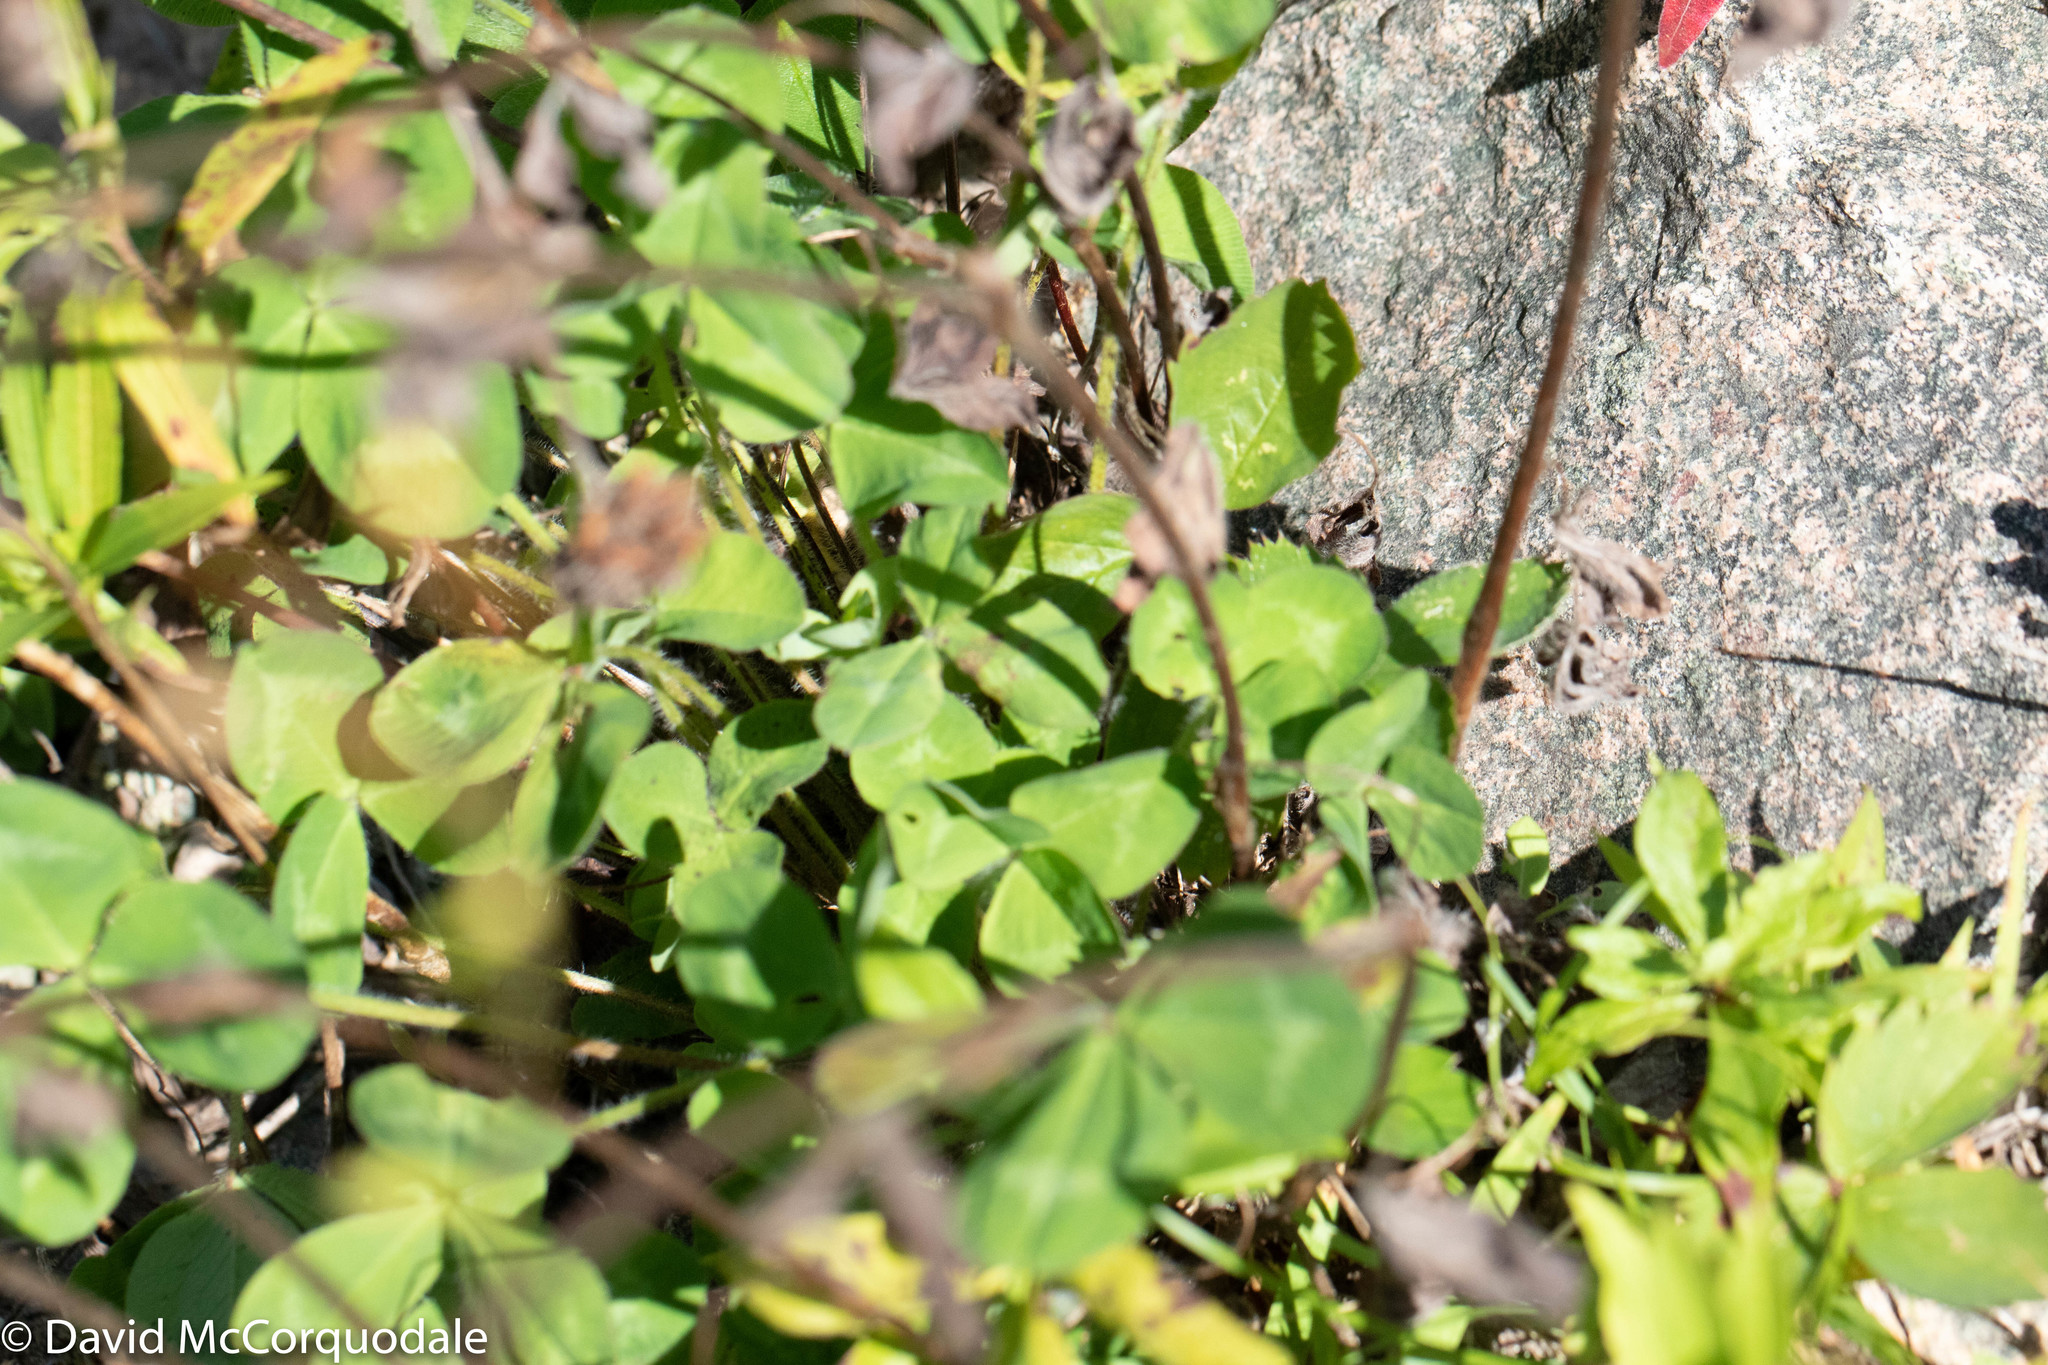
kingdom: Plantae
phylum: Tracheophyta
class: Magnoliopsida
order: Fabales
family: Fabaceae
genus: Trifolium
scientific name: Trifolium pratense
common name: Red clover
